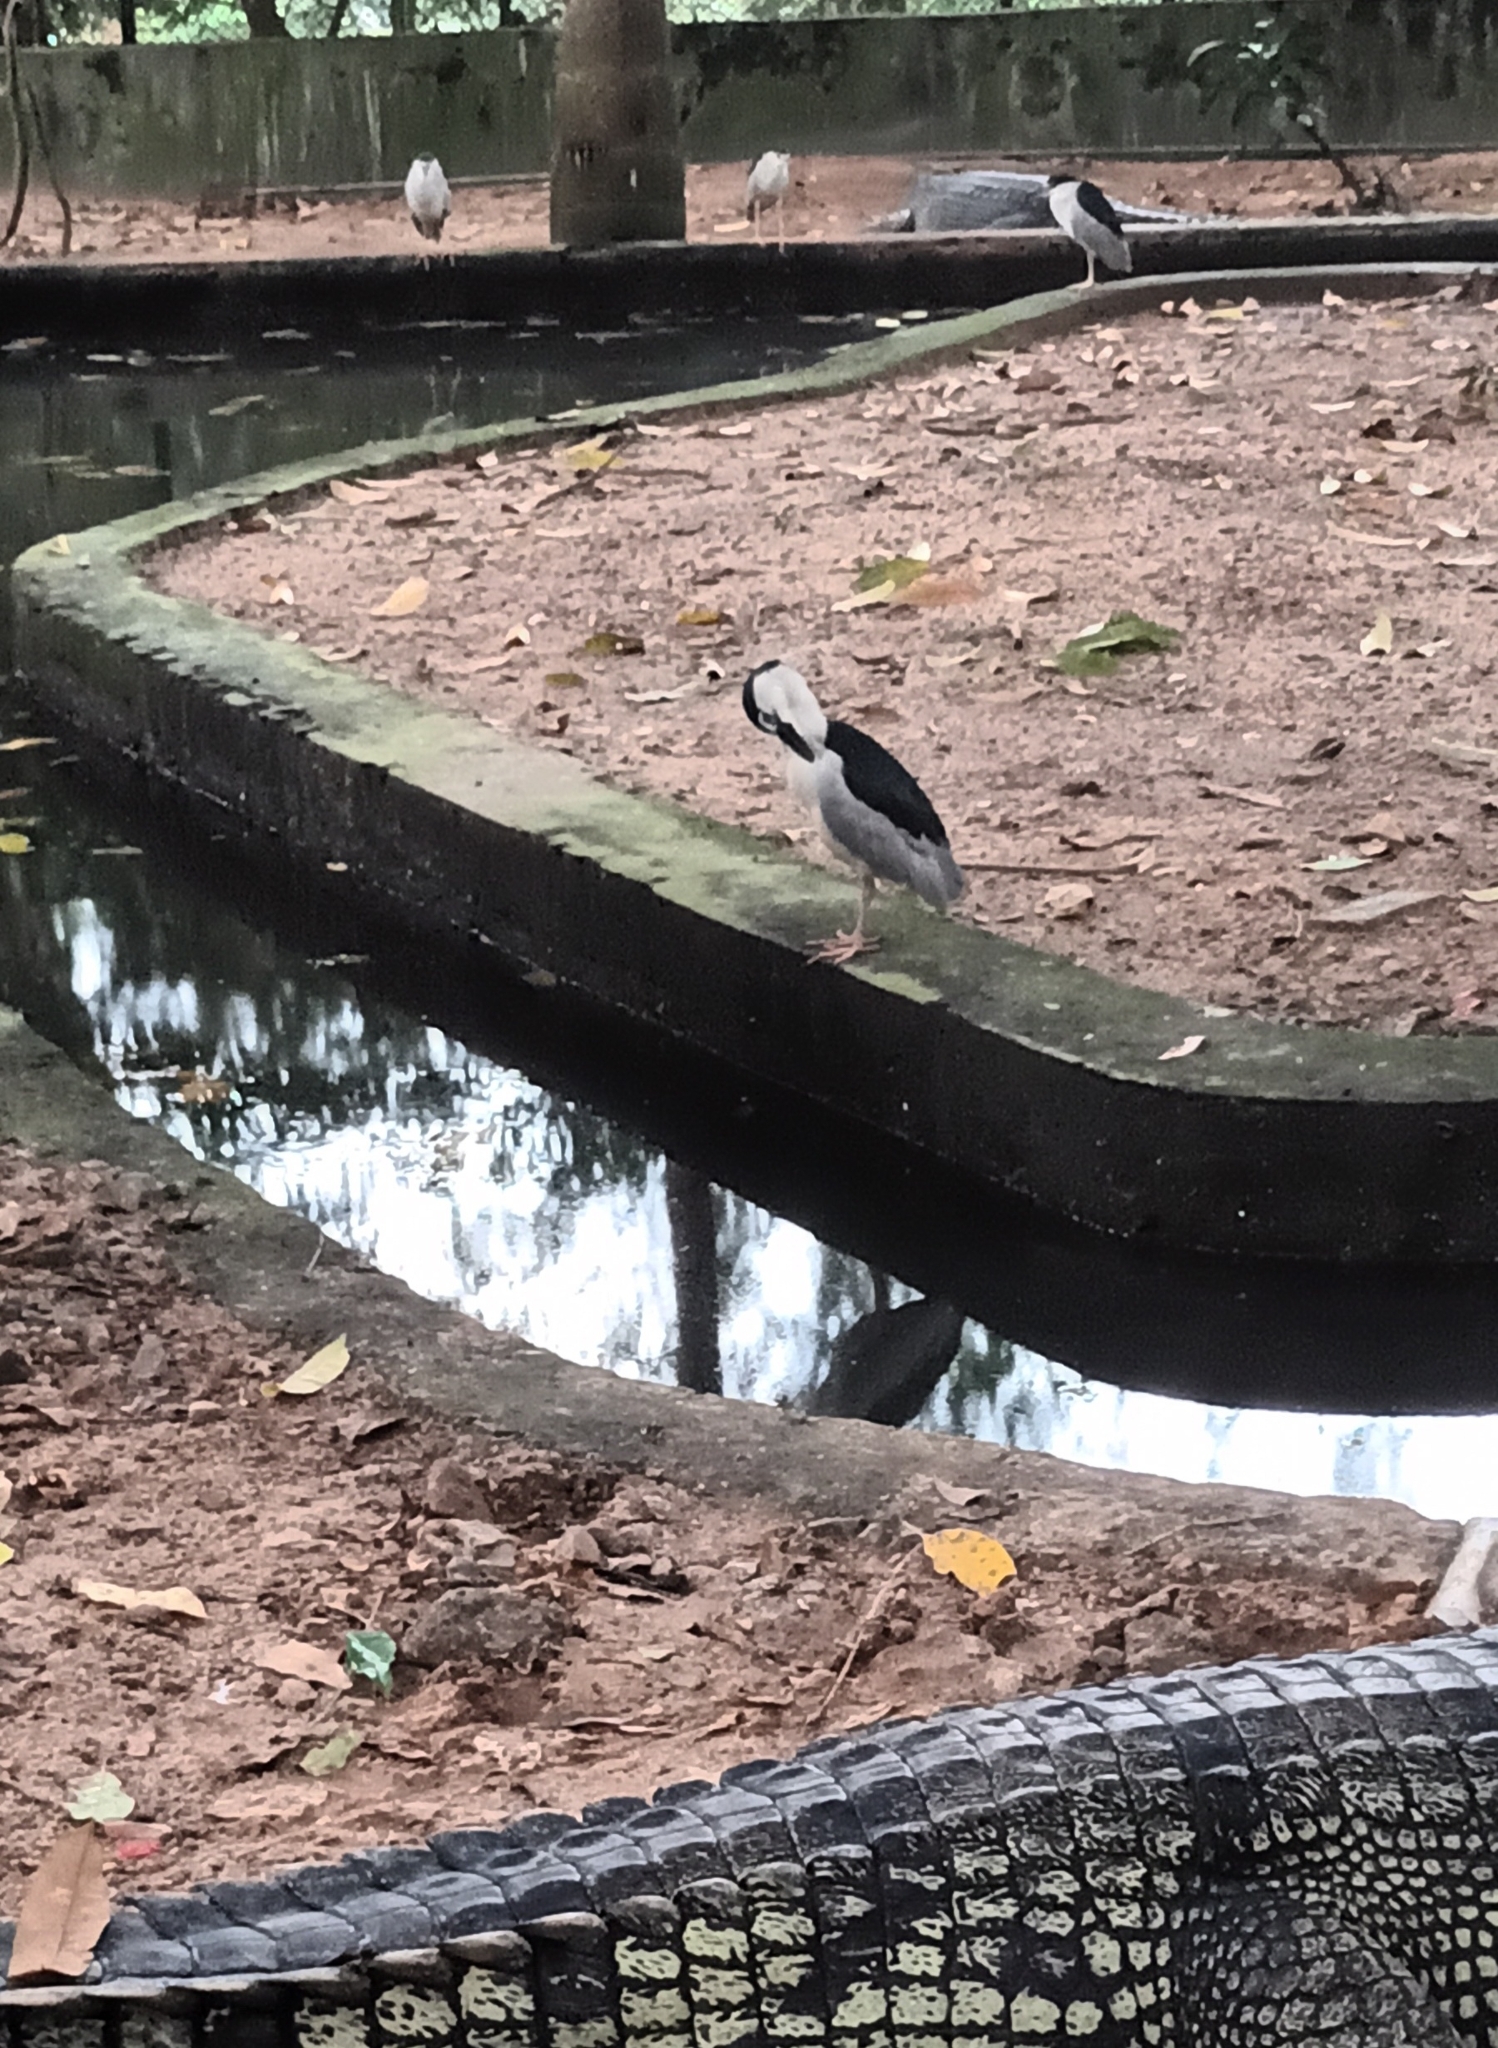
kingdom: Animalia
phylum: Chordata
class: Aves
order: Pelecaniformes
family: Ardeidae
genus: Nycticorax
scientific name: Nycticorax nycticorax
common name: Black-crowned night heron
